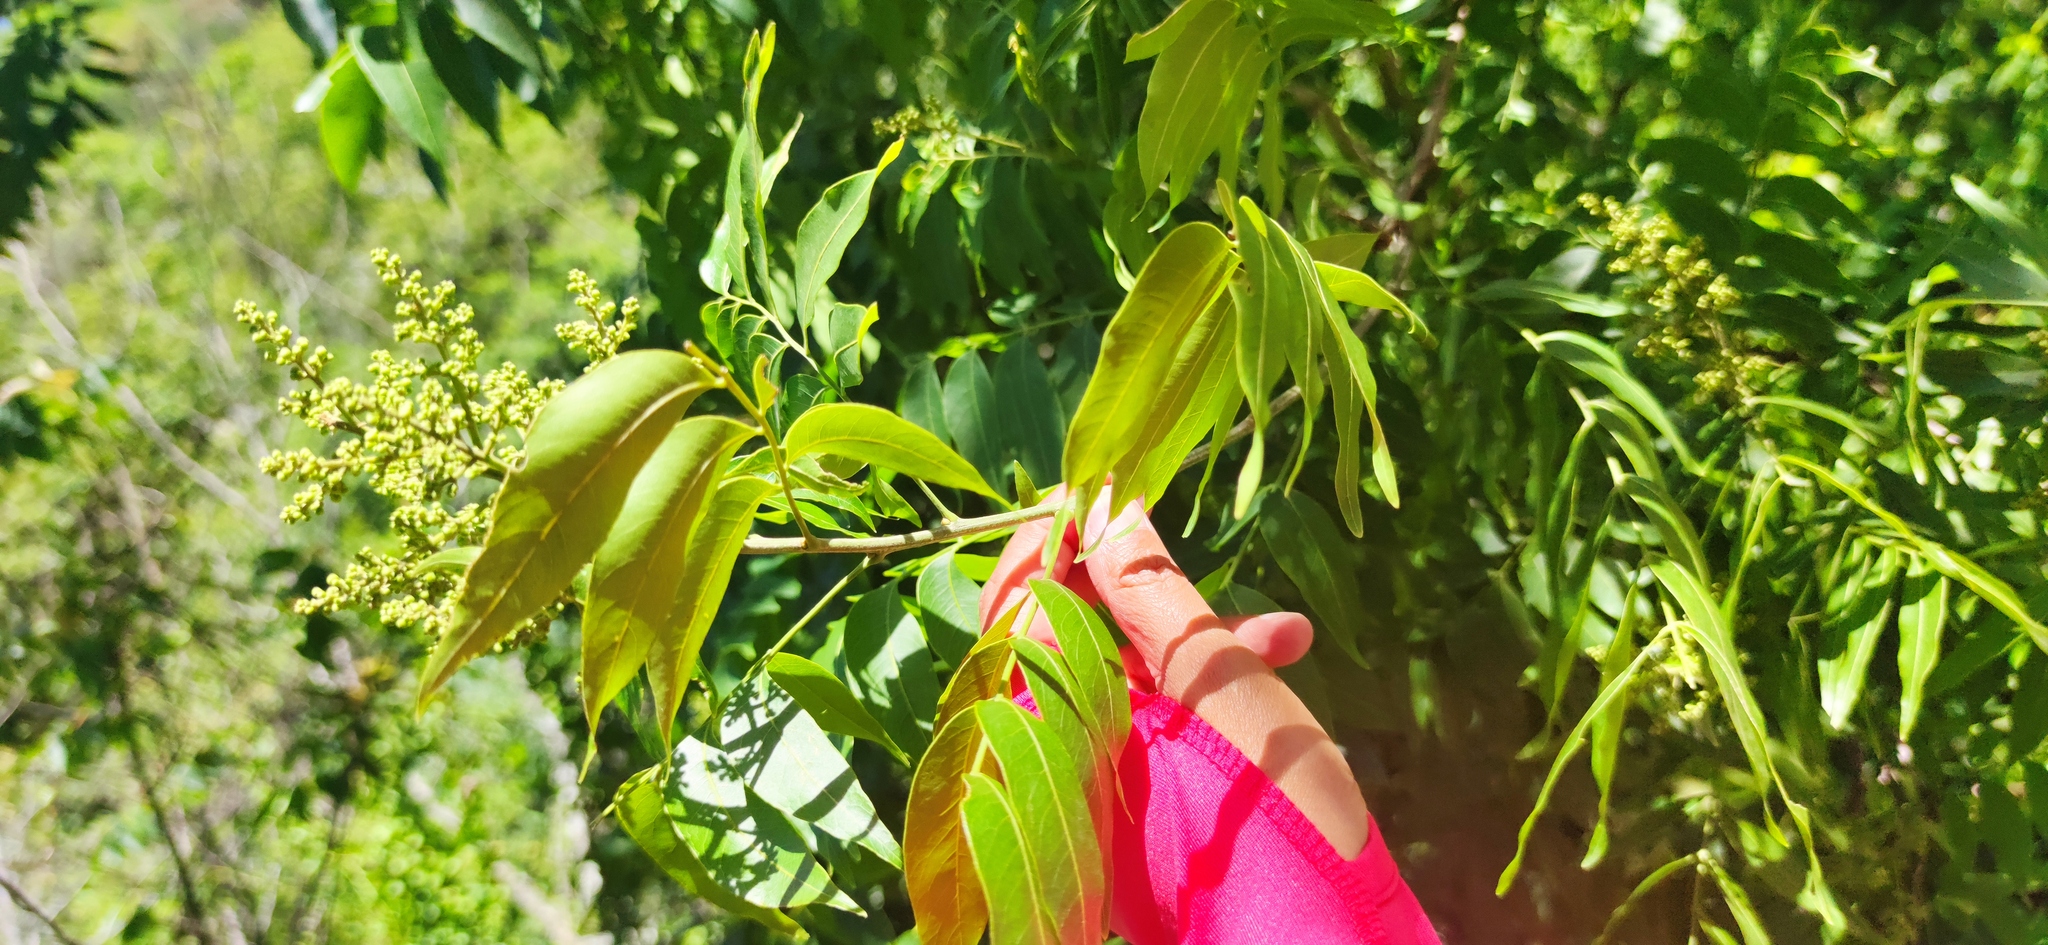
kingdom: Plantae
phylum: Tracheophyta
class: Magnoliopsida
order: Sapindales
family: Sapindaceae
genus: Sapindus
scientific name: Sapindus drummondii
